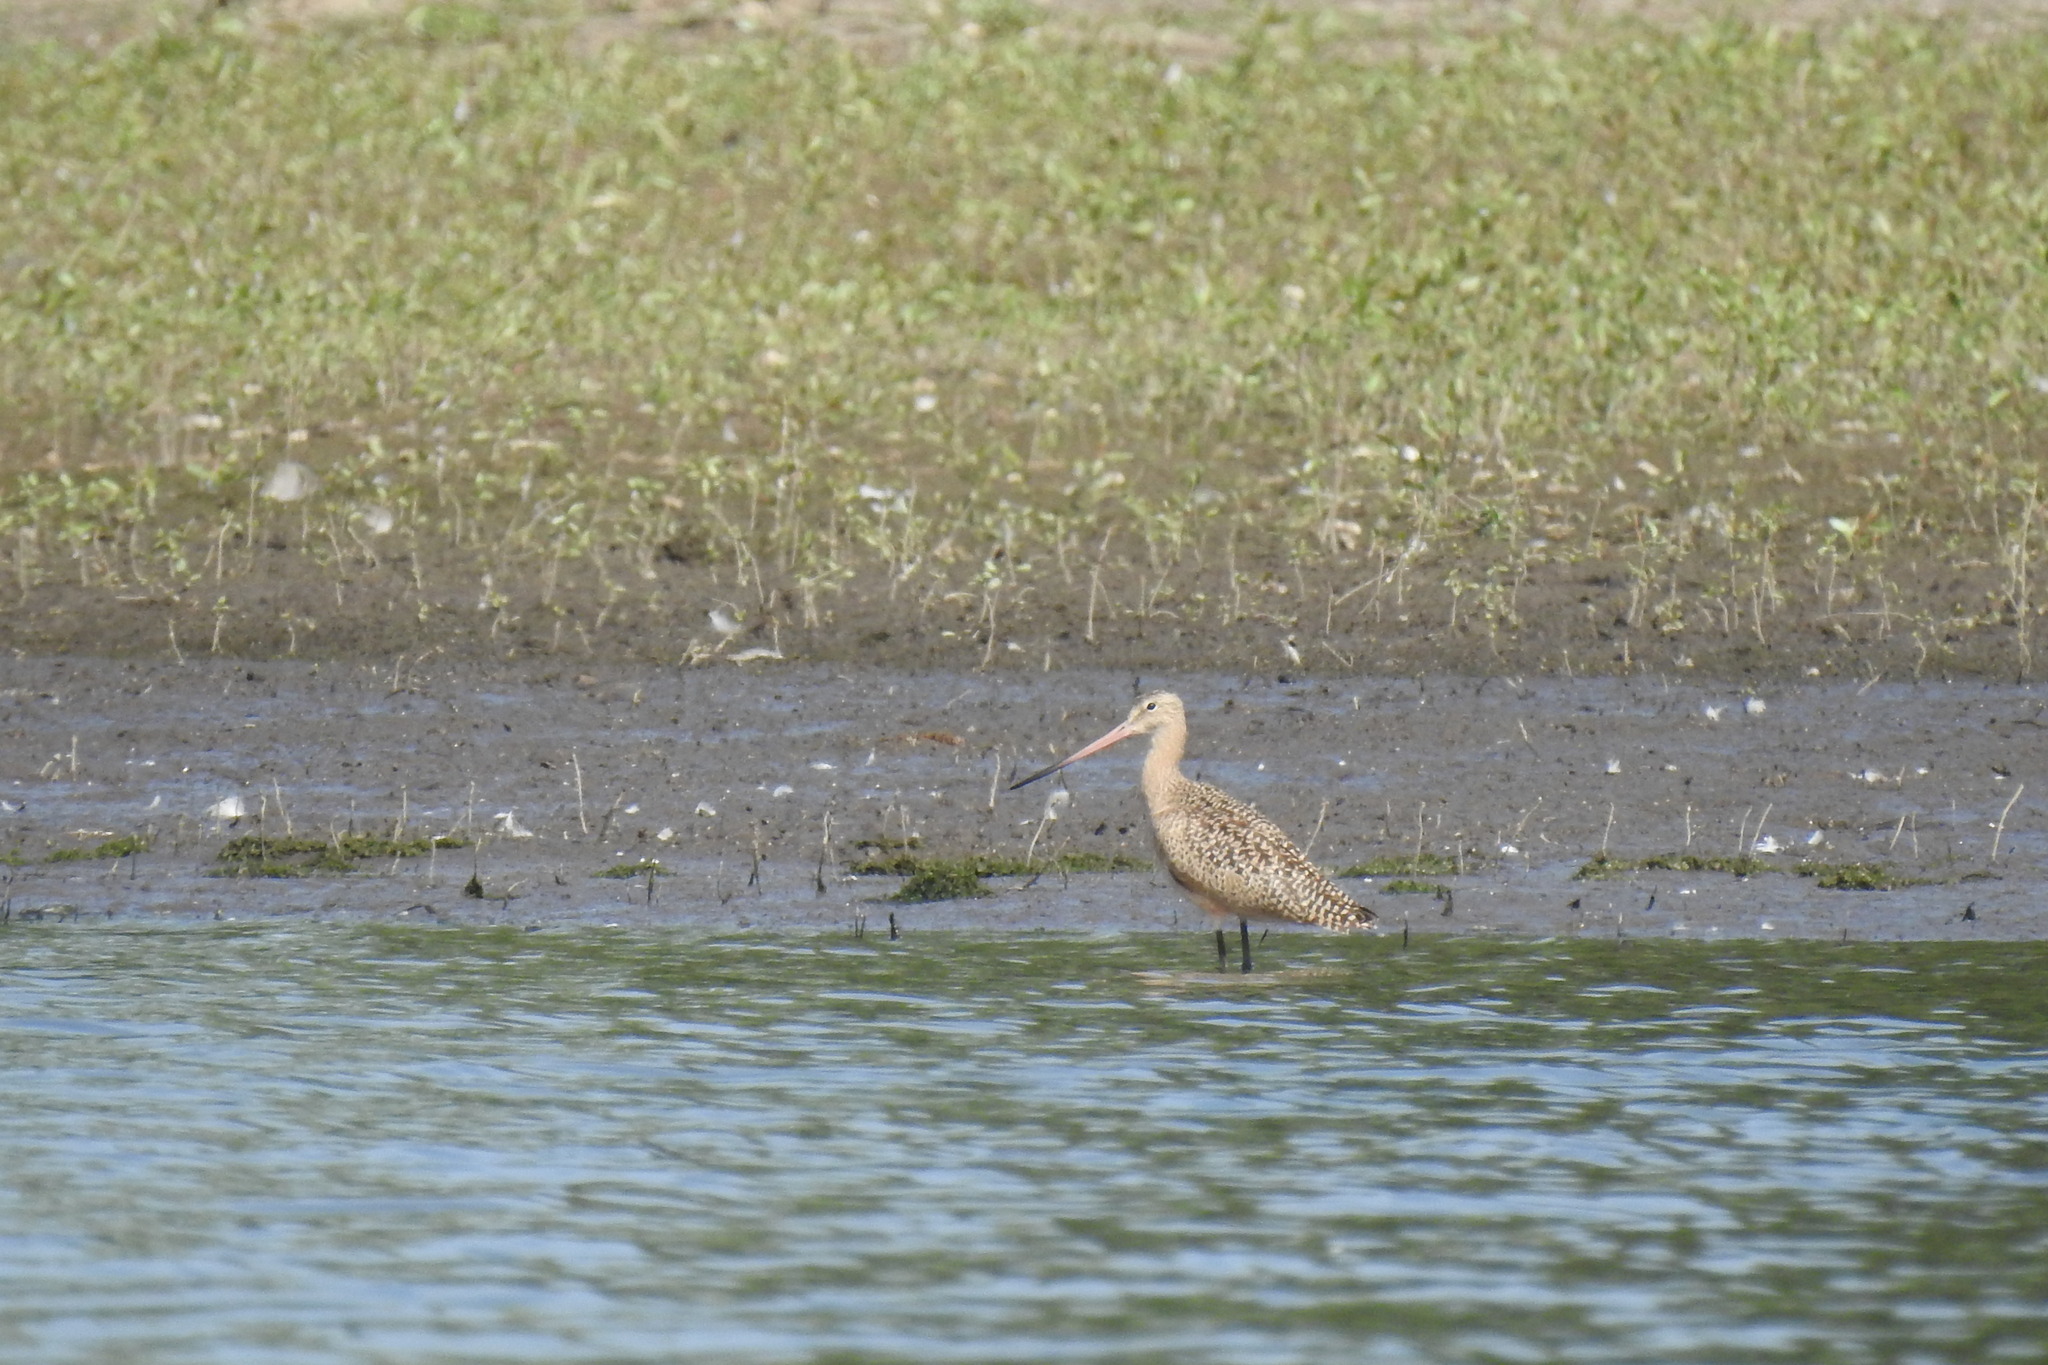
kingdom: Animalia
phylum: Chordata
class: Aves
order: Charadriiformes
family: Scolopacidae
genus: Limosa
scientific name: Limosa fedoa
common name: Marbled godwit
